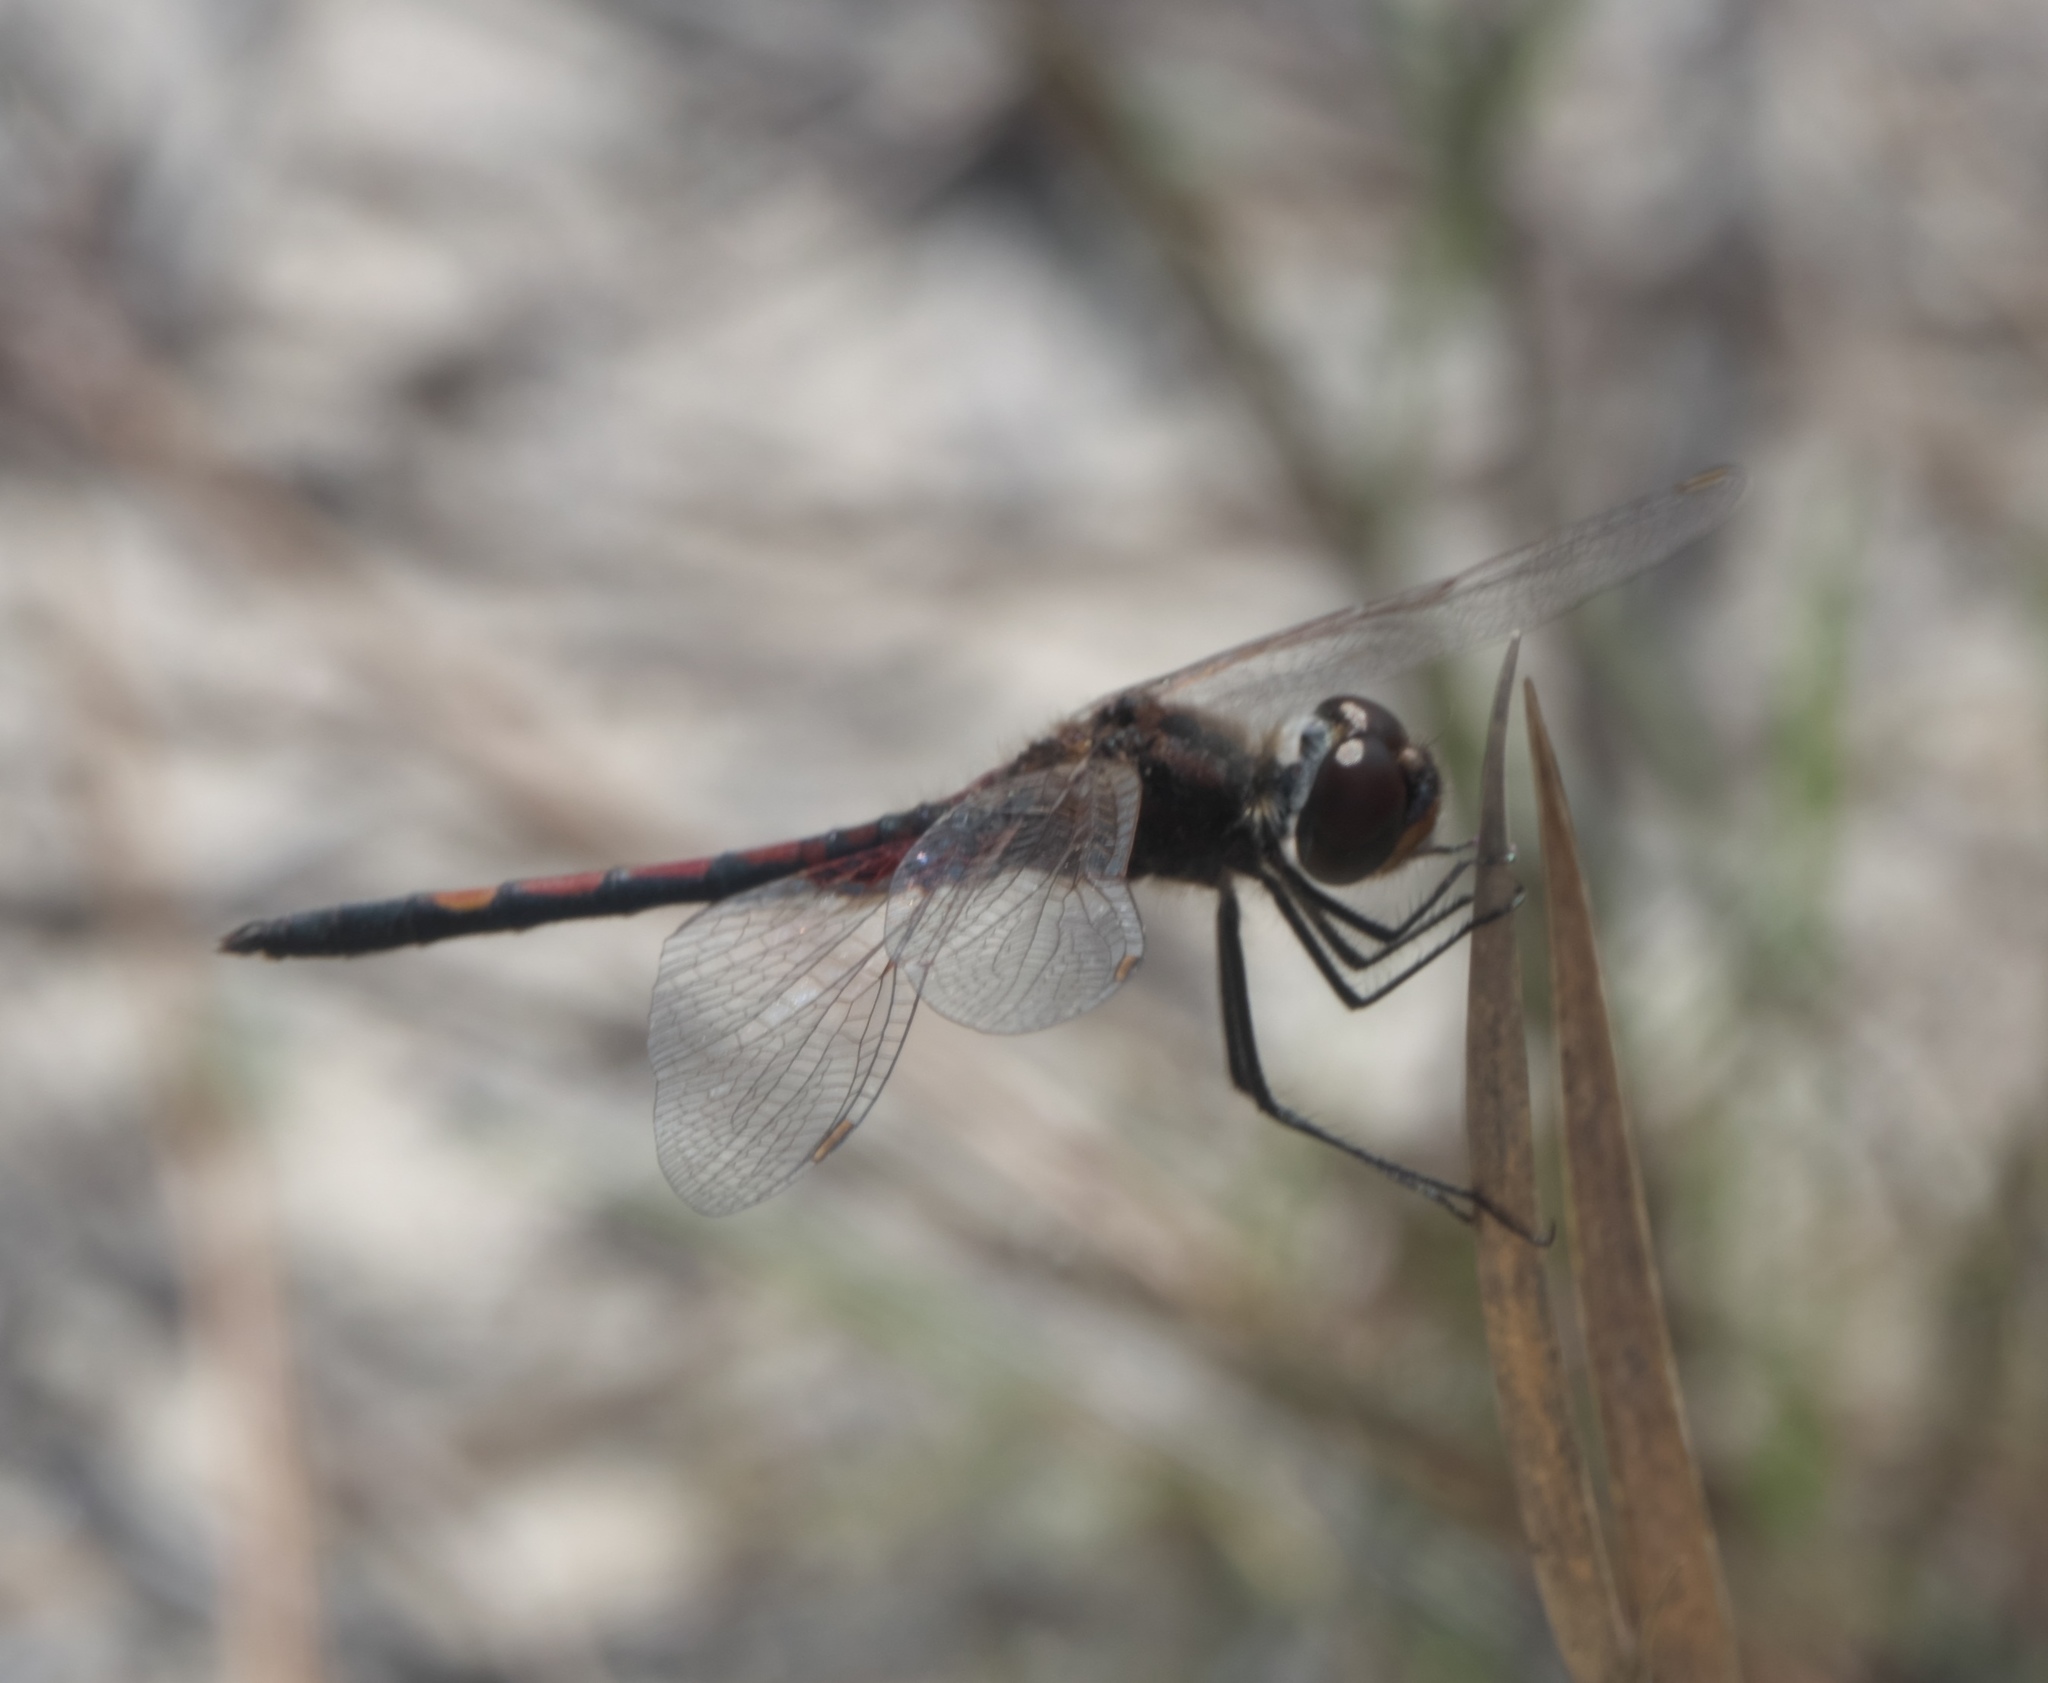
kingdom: Animalia
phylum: Arthropoda
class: Insecta
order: Odonata
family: Libellulidae
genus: Celithemis
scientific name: Celithemis ornata
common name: Ornate pennant
